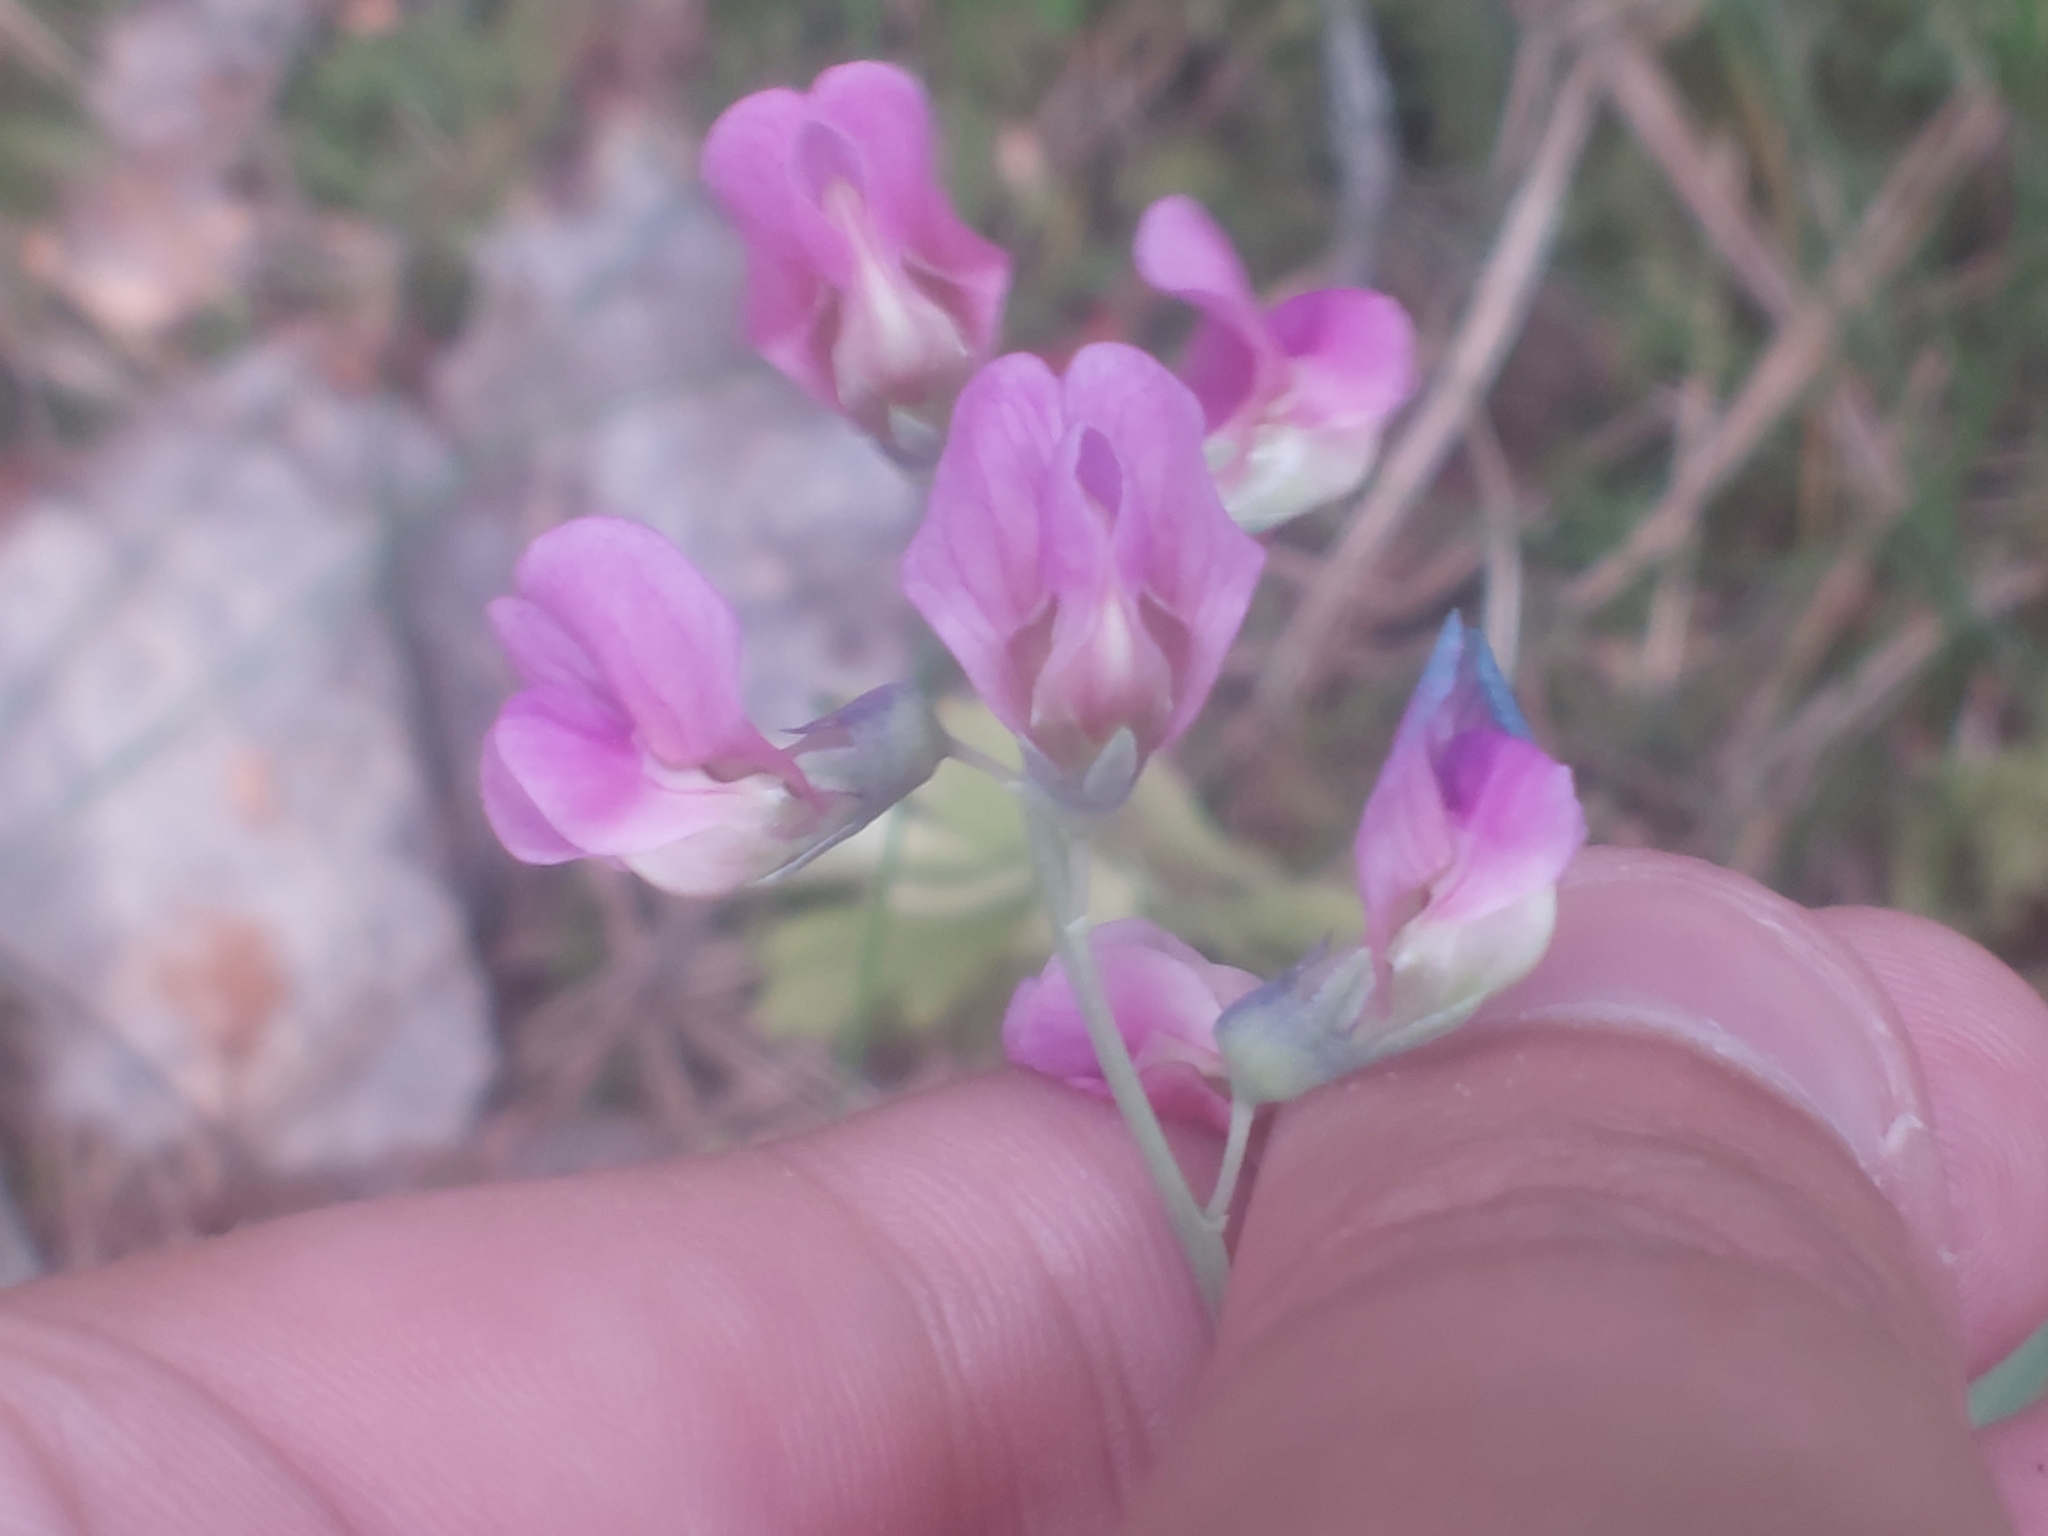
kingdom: Plantae
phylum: Tracheophyta
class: Magnoliopsida
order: Fabales
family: Fabaceae
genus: Lathyrus
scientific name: Lathyrus linifolius
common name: Bitter-vetch
